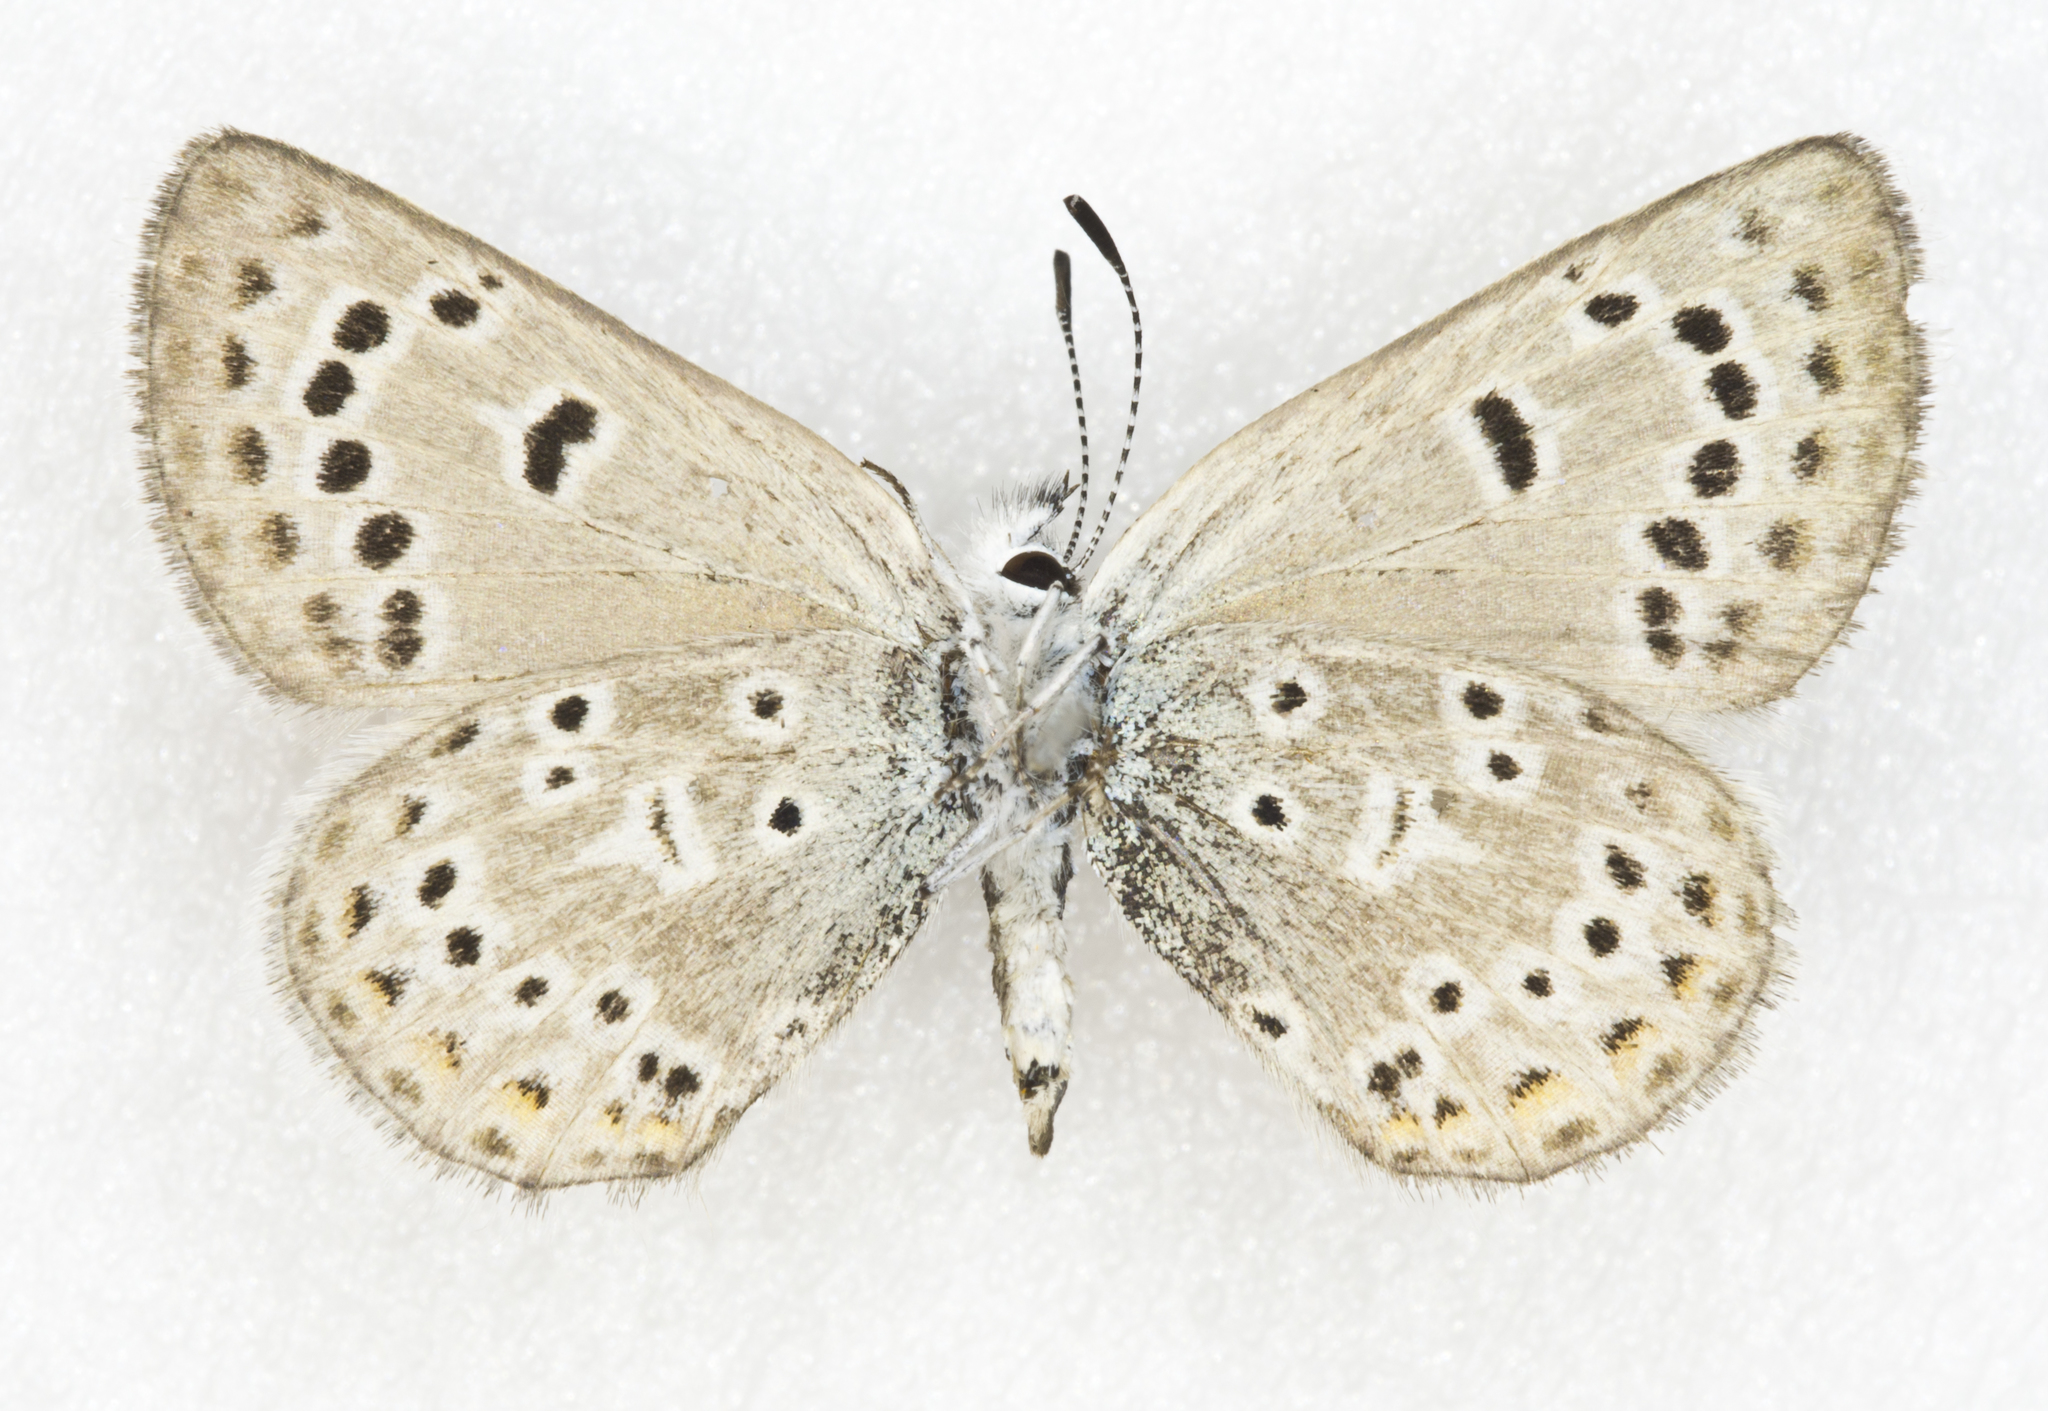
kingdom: Animalia
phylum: Arthropoda
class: Insecta
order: Lepidoptera
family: Lycaenidae
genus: Icaricia
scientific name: Icaricia saepiolus
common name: Greenish blue
